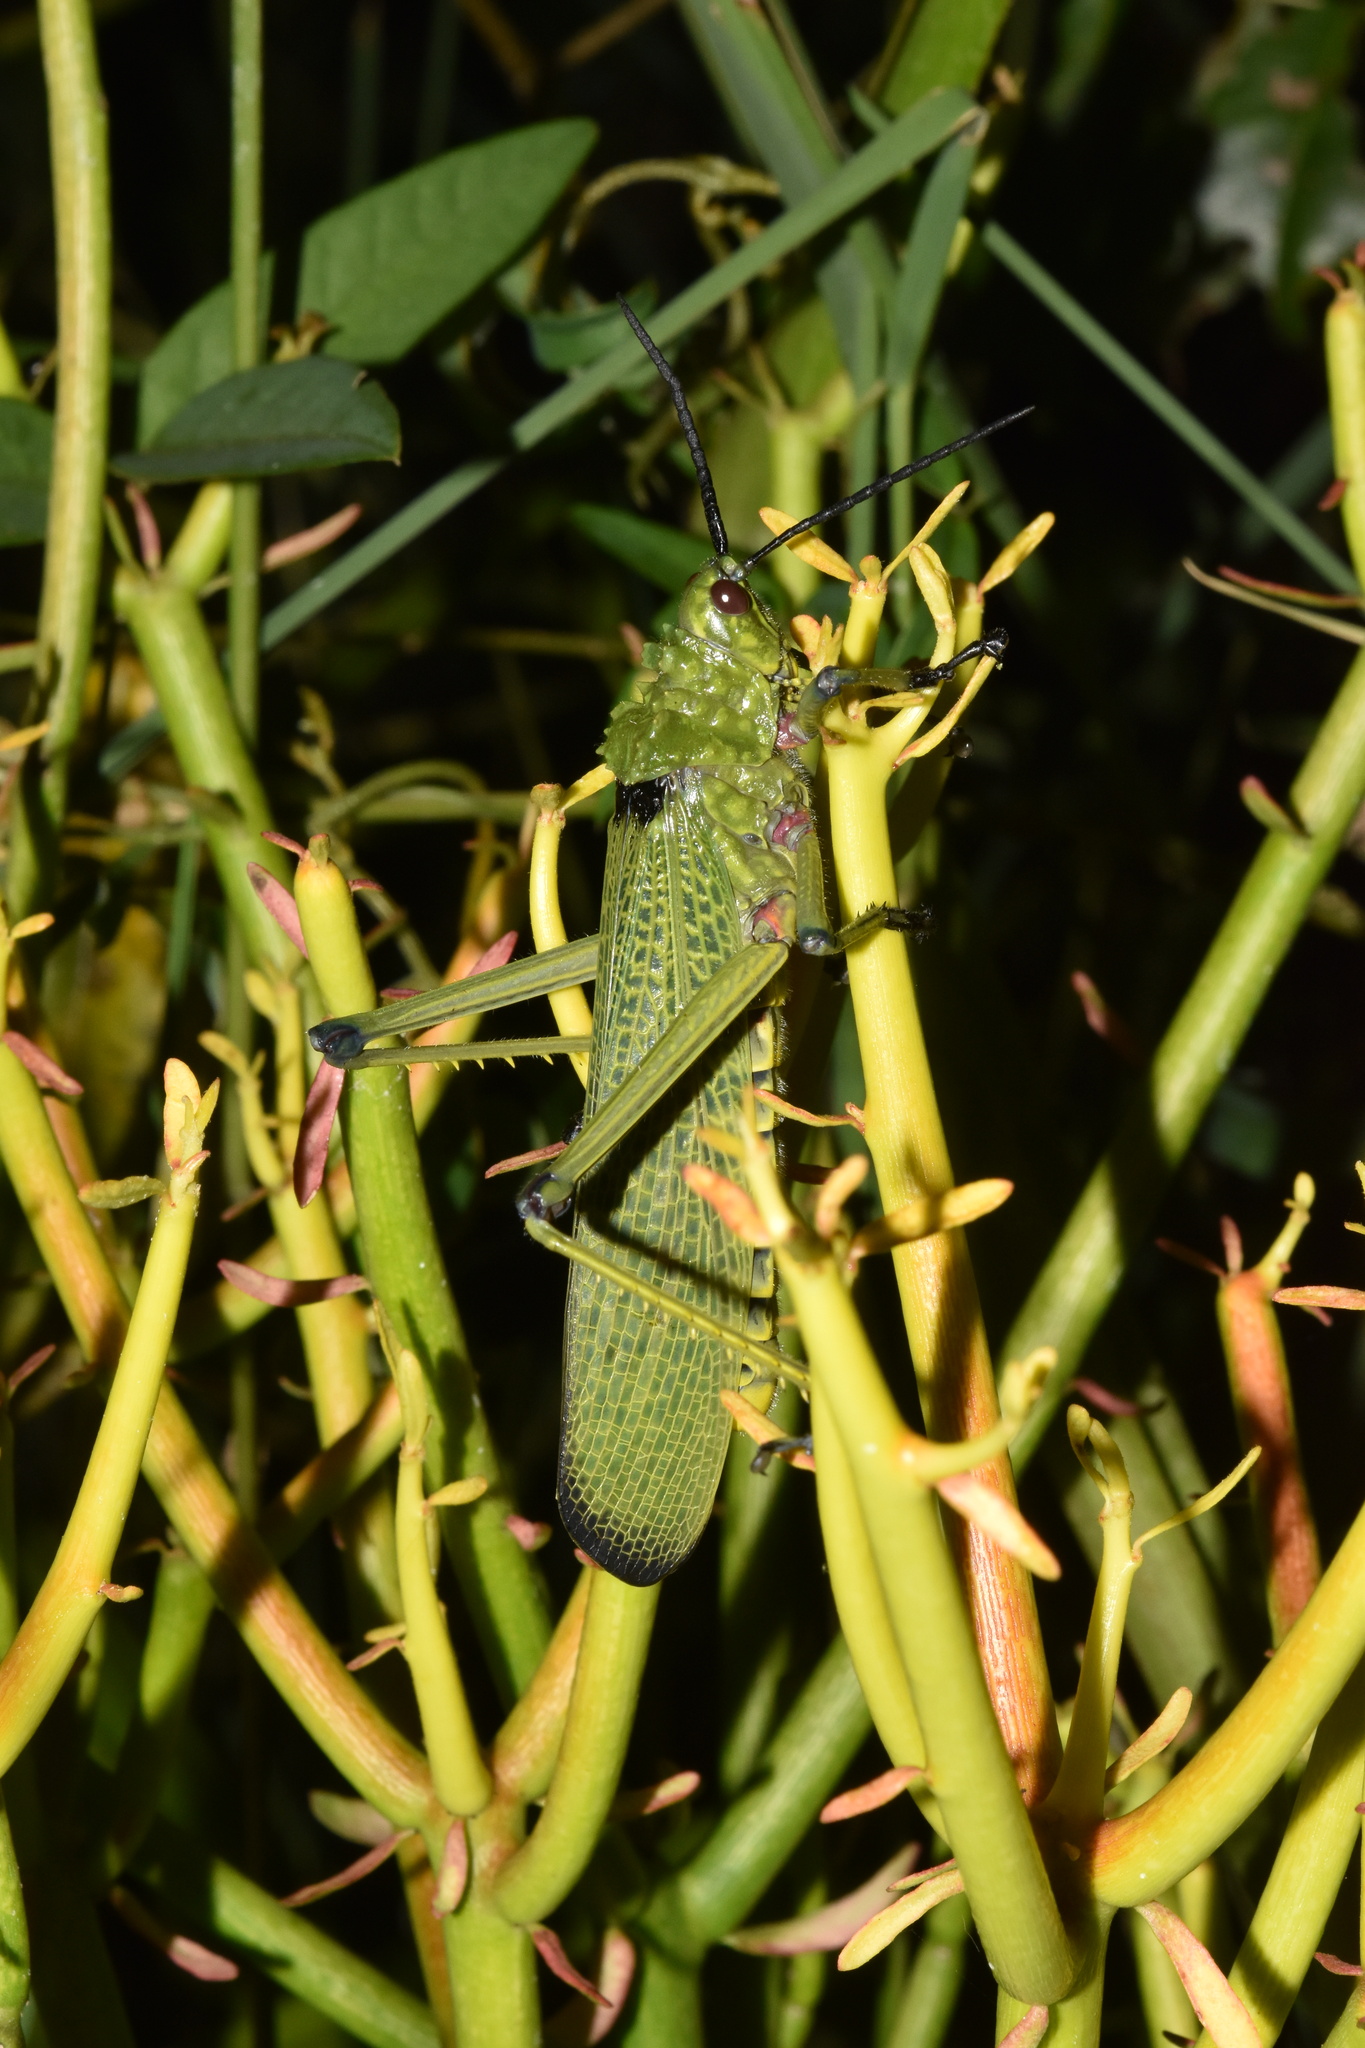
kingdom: Animalia
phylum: Arthropoda
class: Insecta
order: Orthoptera
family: Pyrgomorphidae
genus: Phymateus
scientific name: Phymateus viridipes
